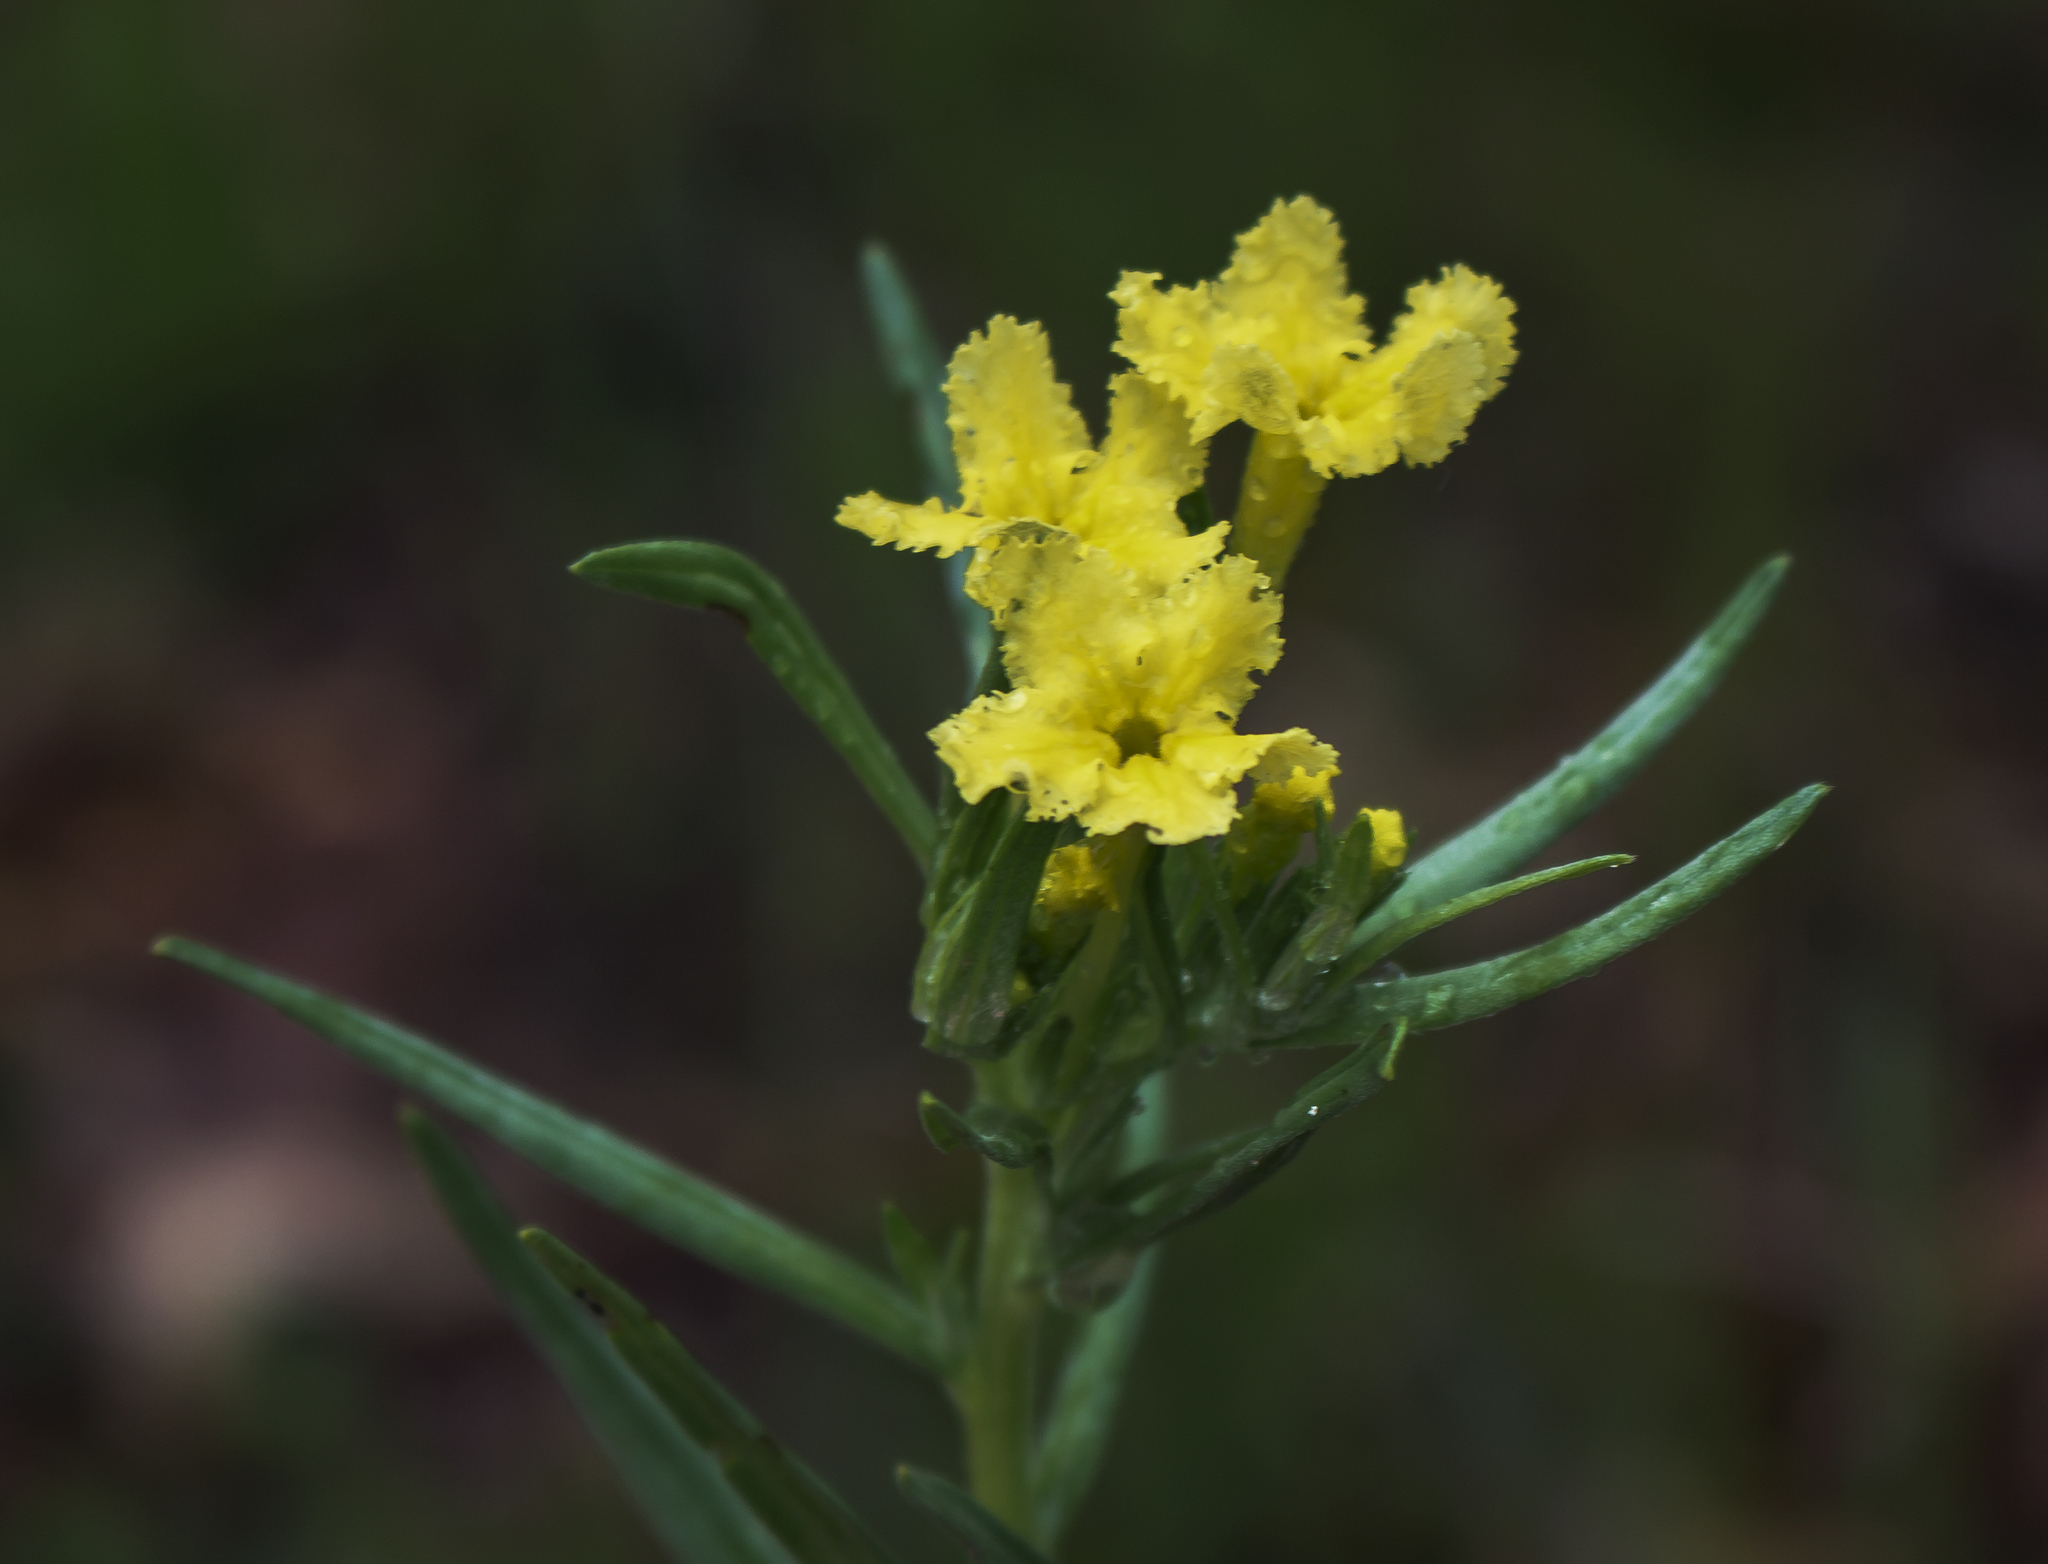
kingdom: Plantae
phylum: Tracheophyta
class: Magnoliopsida
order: Boraginales
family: Boraginaceae
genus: Lithospermum
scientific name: Lithospermum incisum
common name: Fringed gromwell
